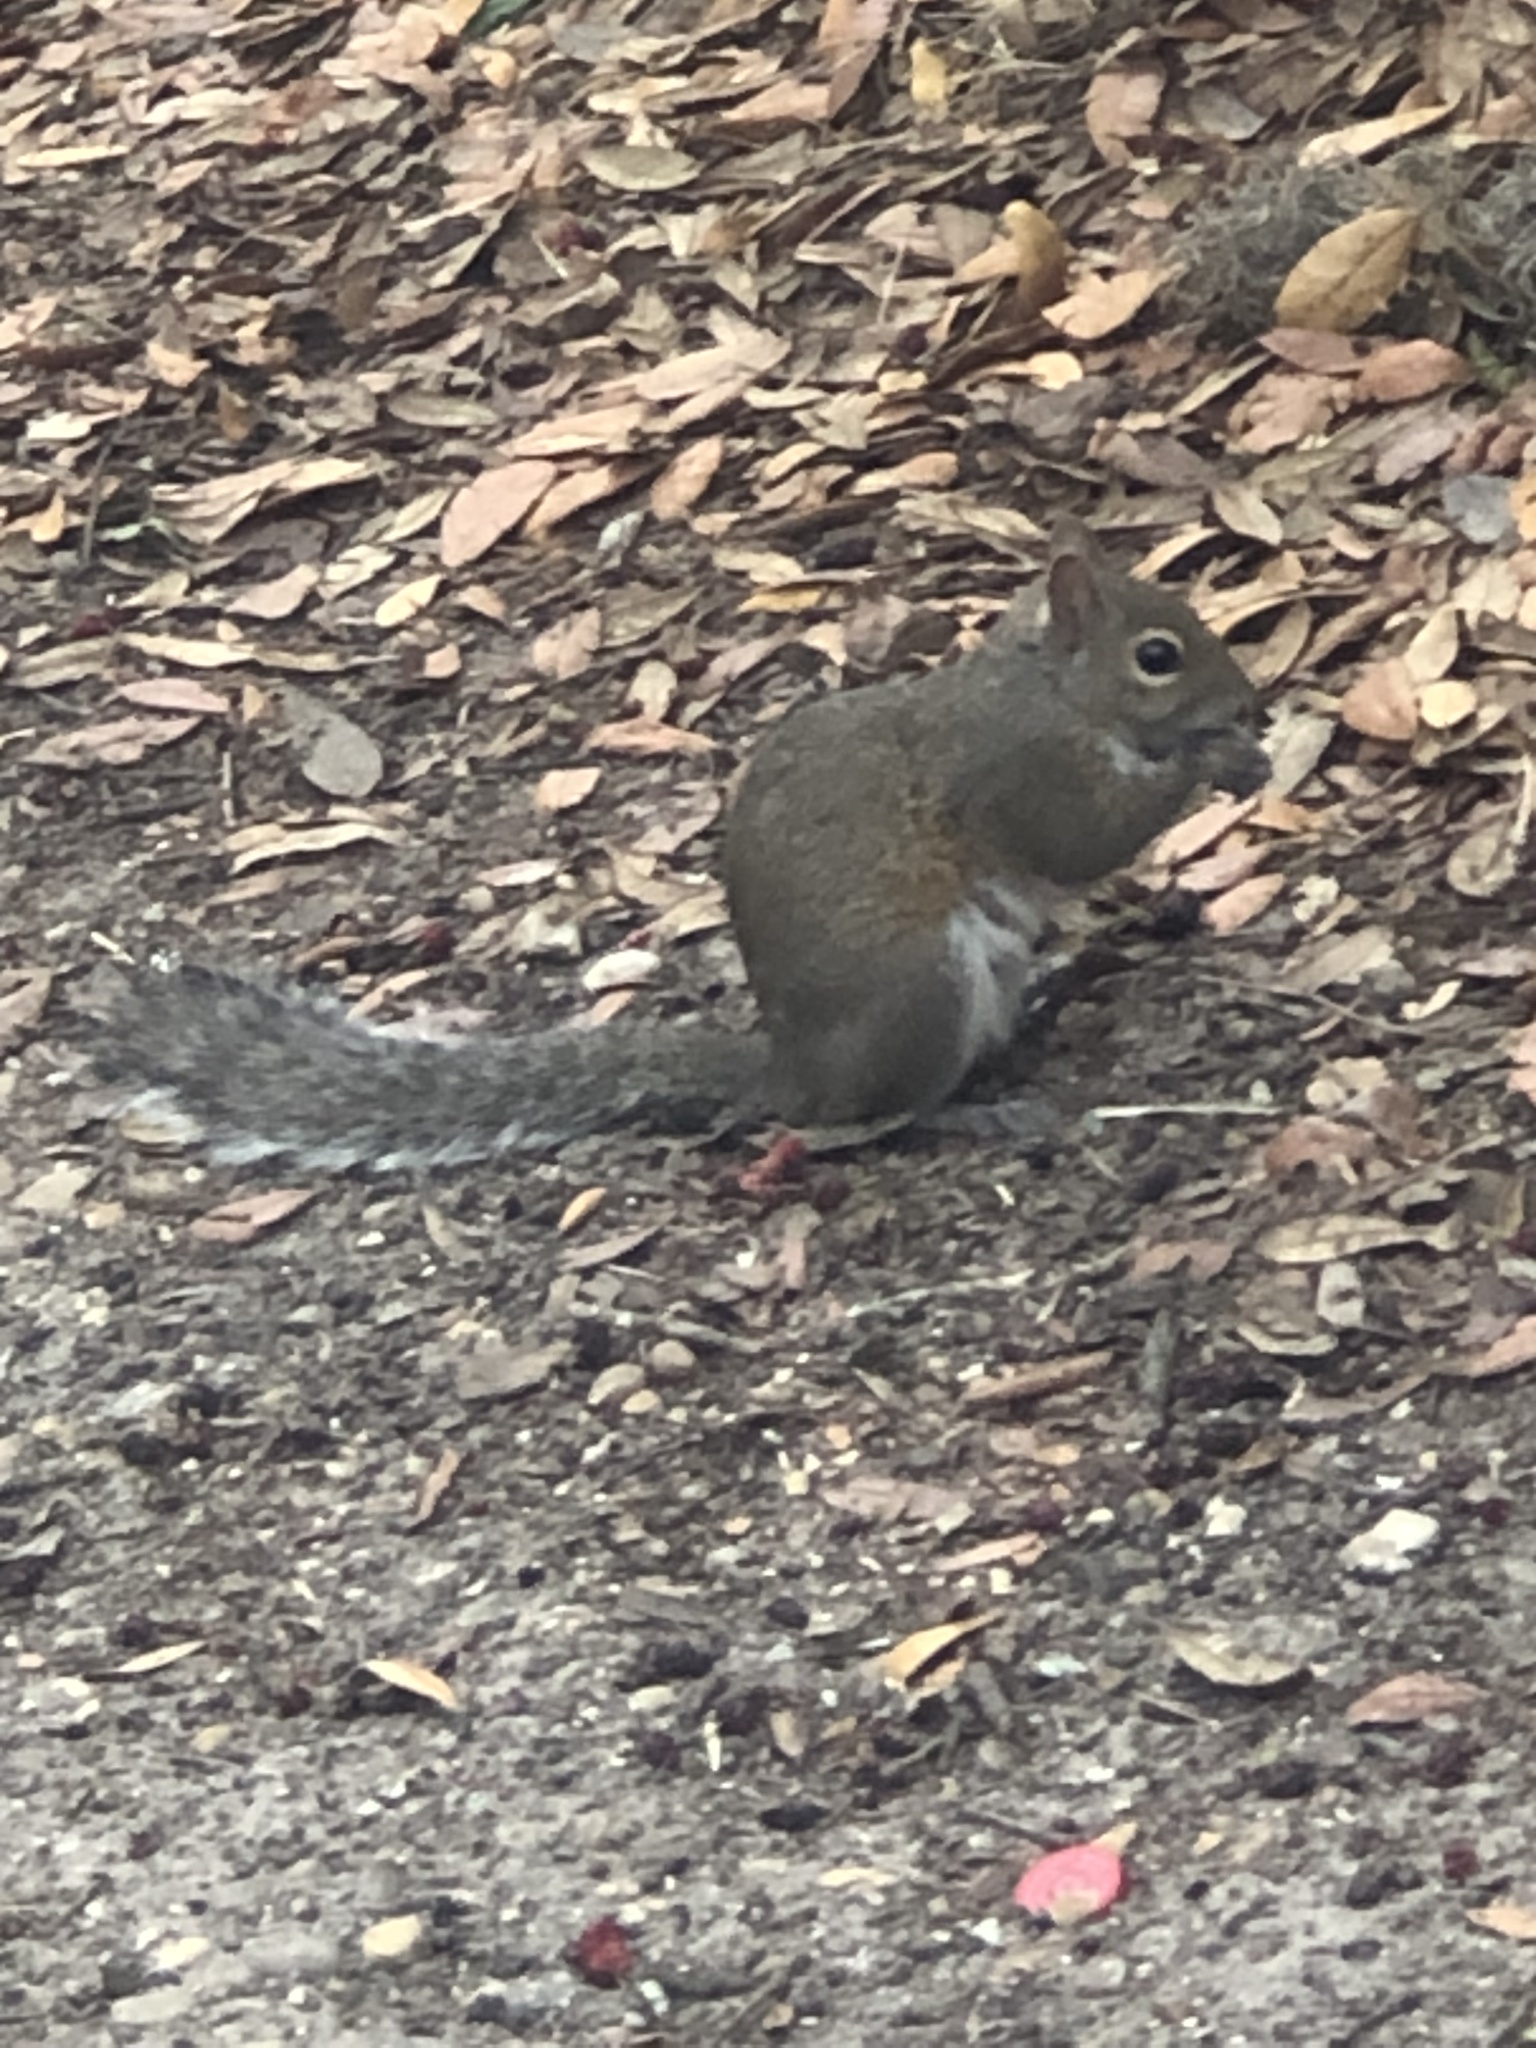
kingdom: Animalia
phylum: Chordata
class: Mammalia
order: Rodentia
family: Sciuridae
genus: Sciurus
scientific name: Sciurus carolinensis
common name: Eastern gray squirrel
